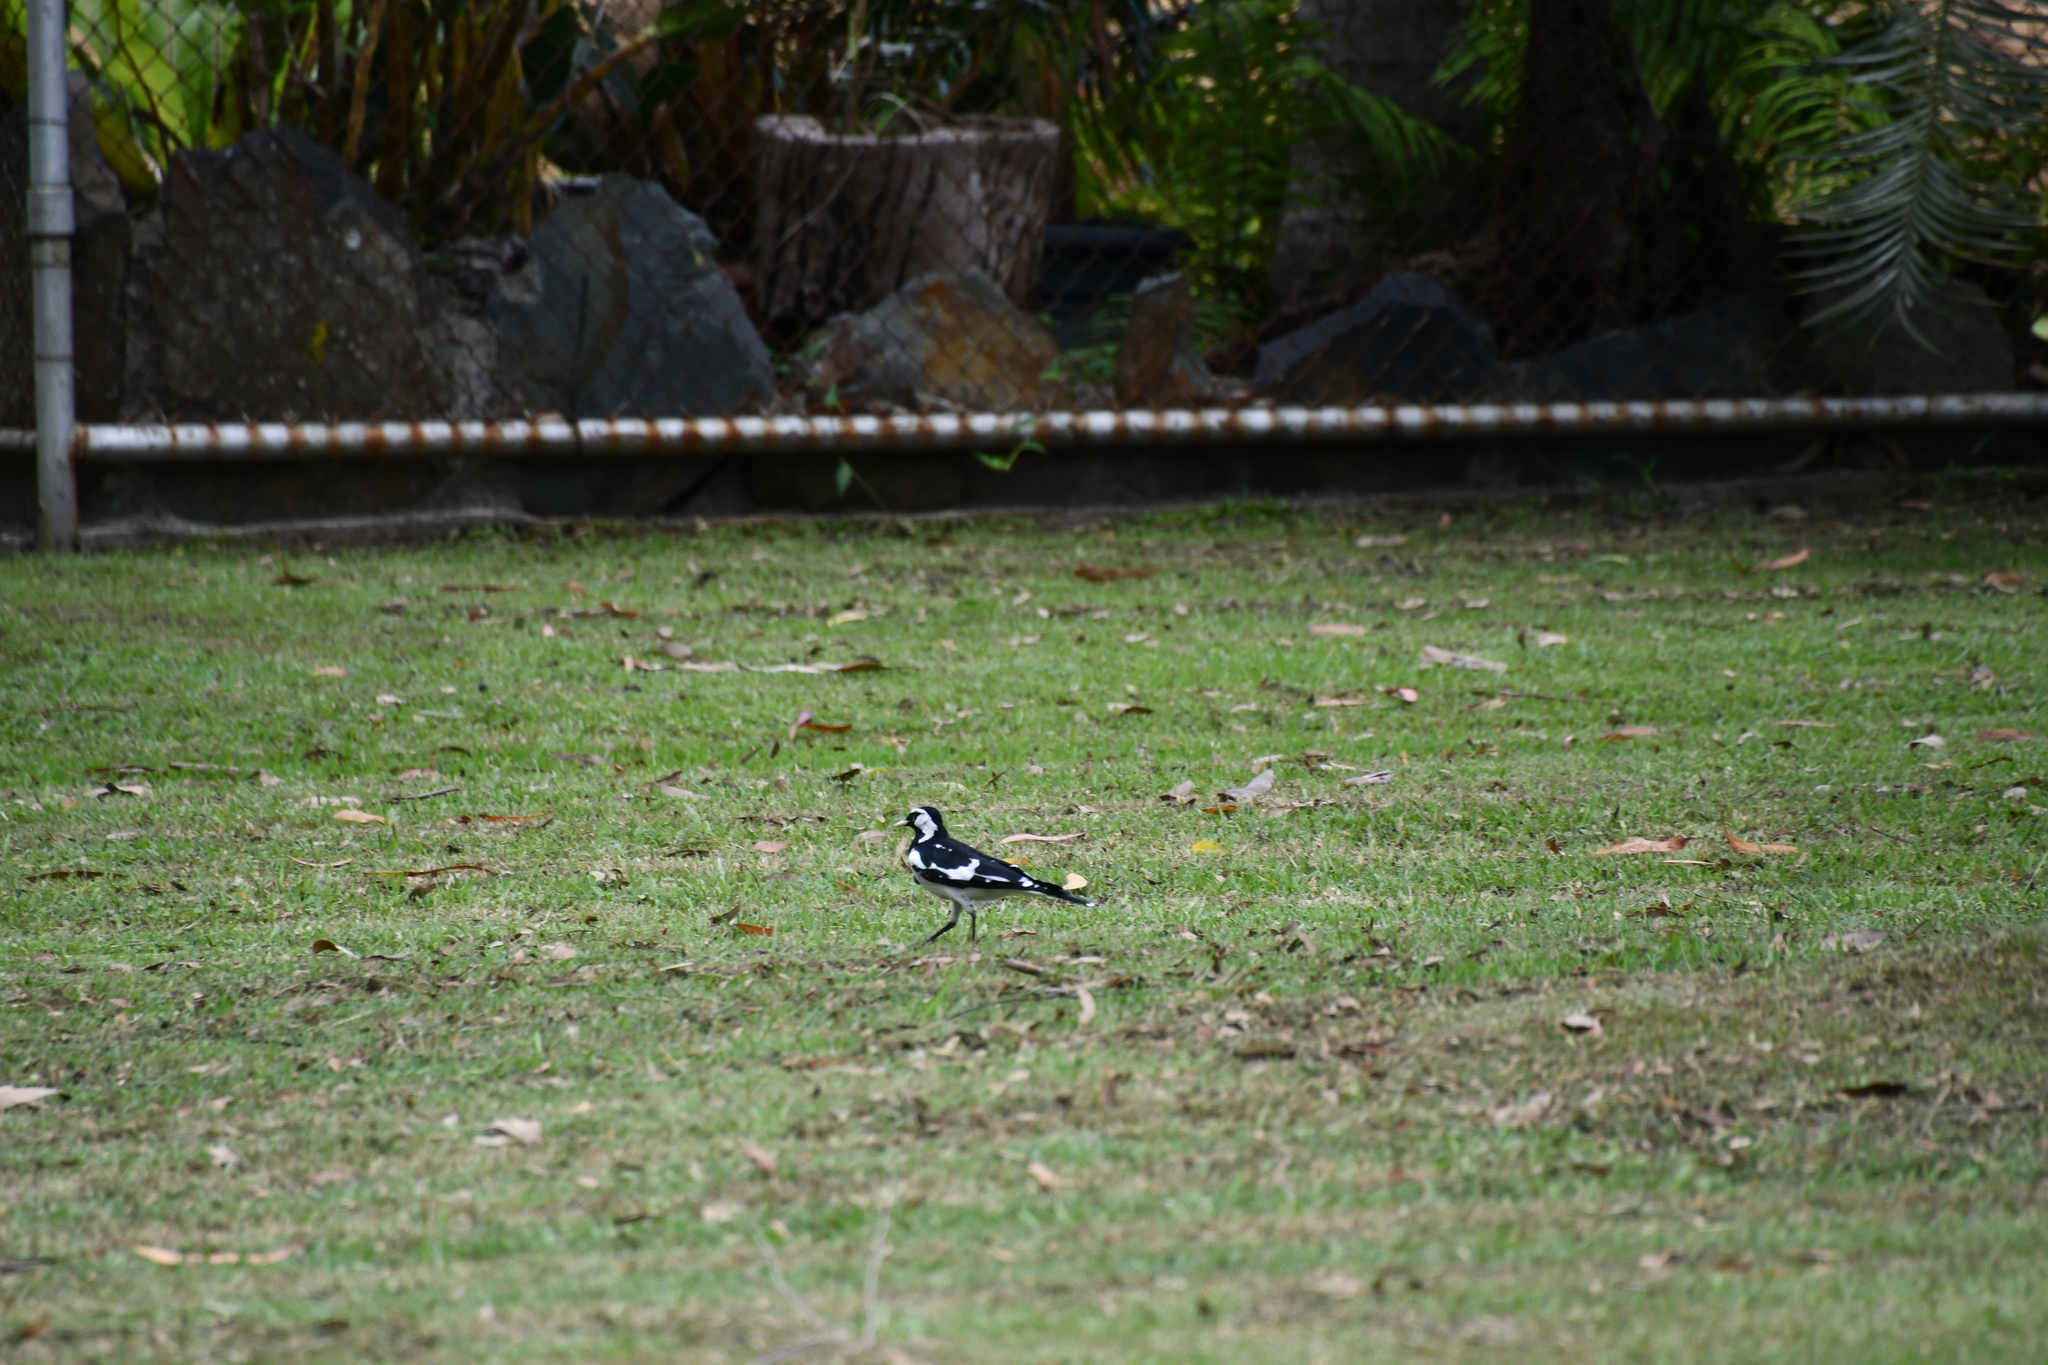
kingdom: Animalia
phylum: Chordata
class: Aves
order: Passeriformes
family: Monarchidae
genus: Grallina
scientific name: Grallina cyanoleuca
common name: Magpie-lark
